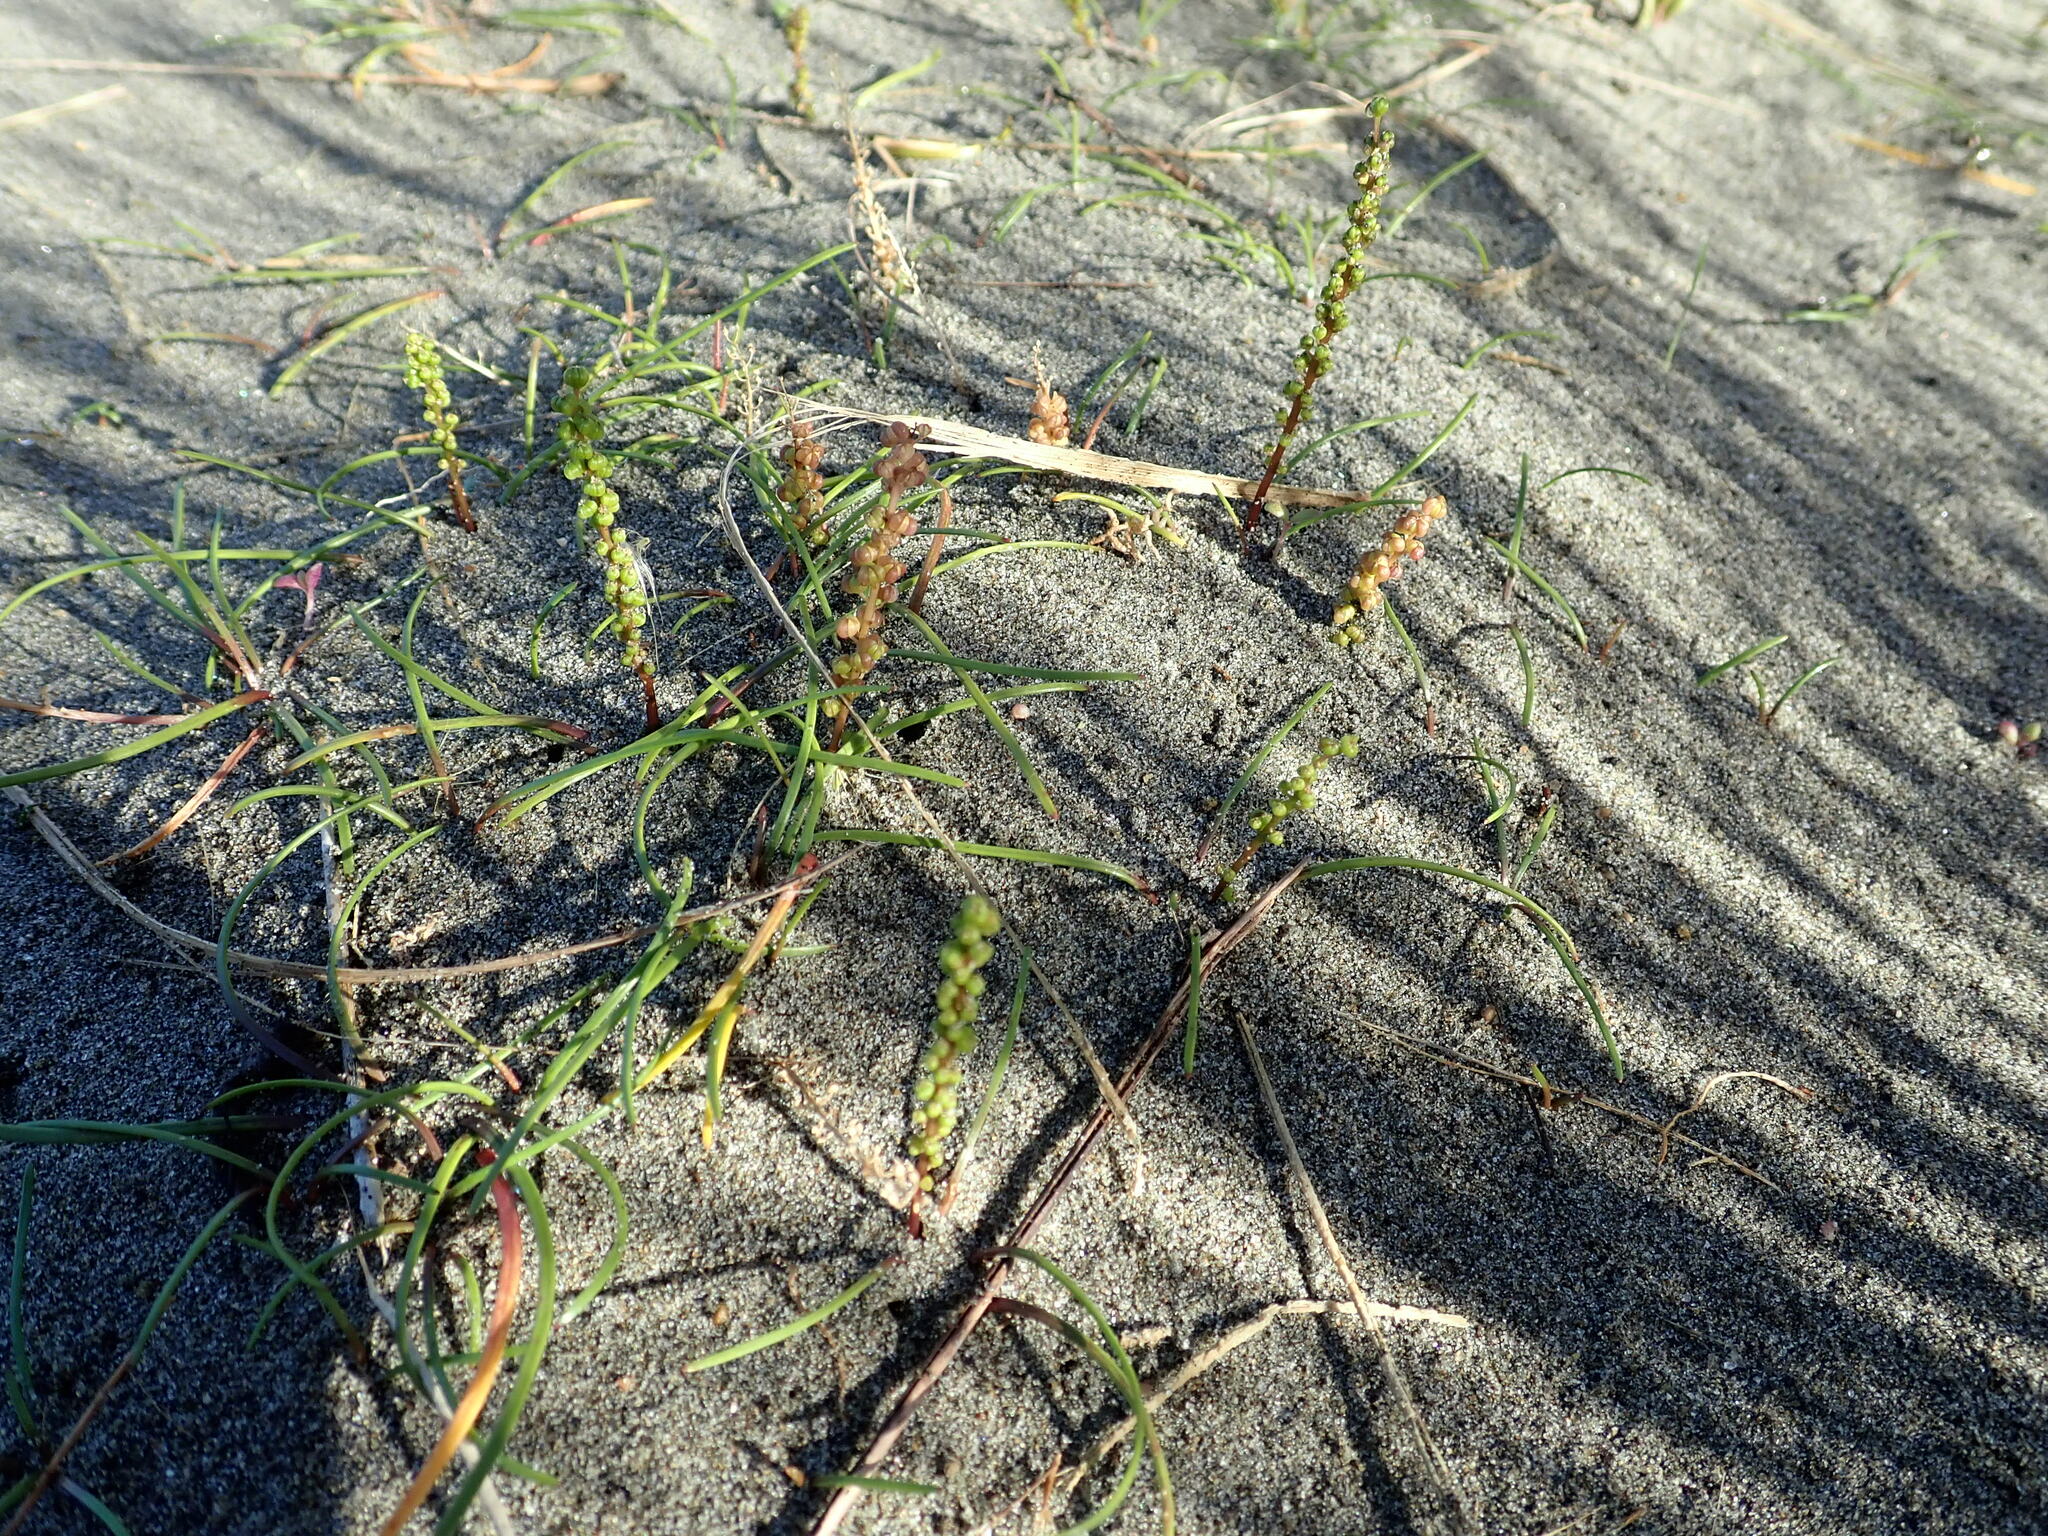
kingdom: Plantae
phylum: Tracheophyta
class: Liliopsida
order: Alismatales
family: Juncaginaceae
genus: Triglochin
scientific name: Triglochin striata
